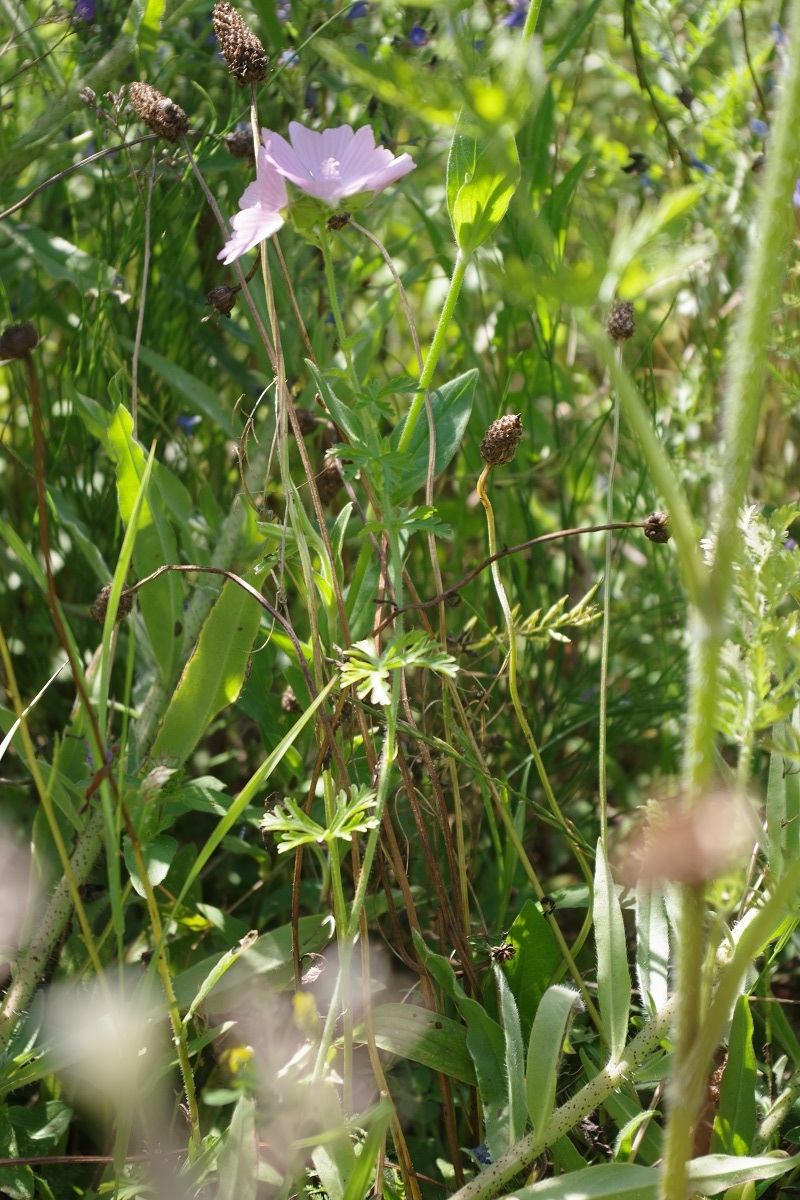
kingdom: Plantae
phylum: Tracheophyta
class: Magnoliopsida
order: Malvales
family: Malvaceae
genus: Malva
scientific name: Malva moschata
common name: Musk mallow
